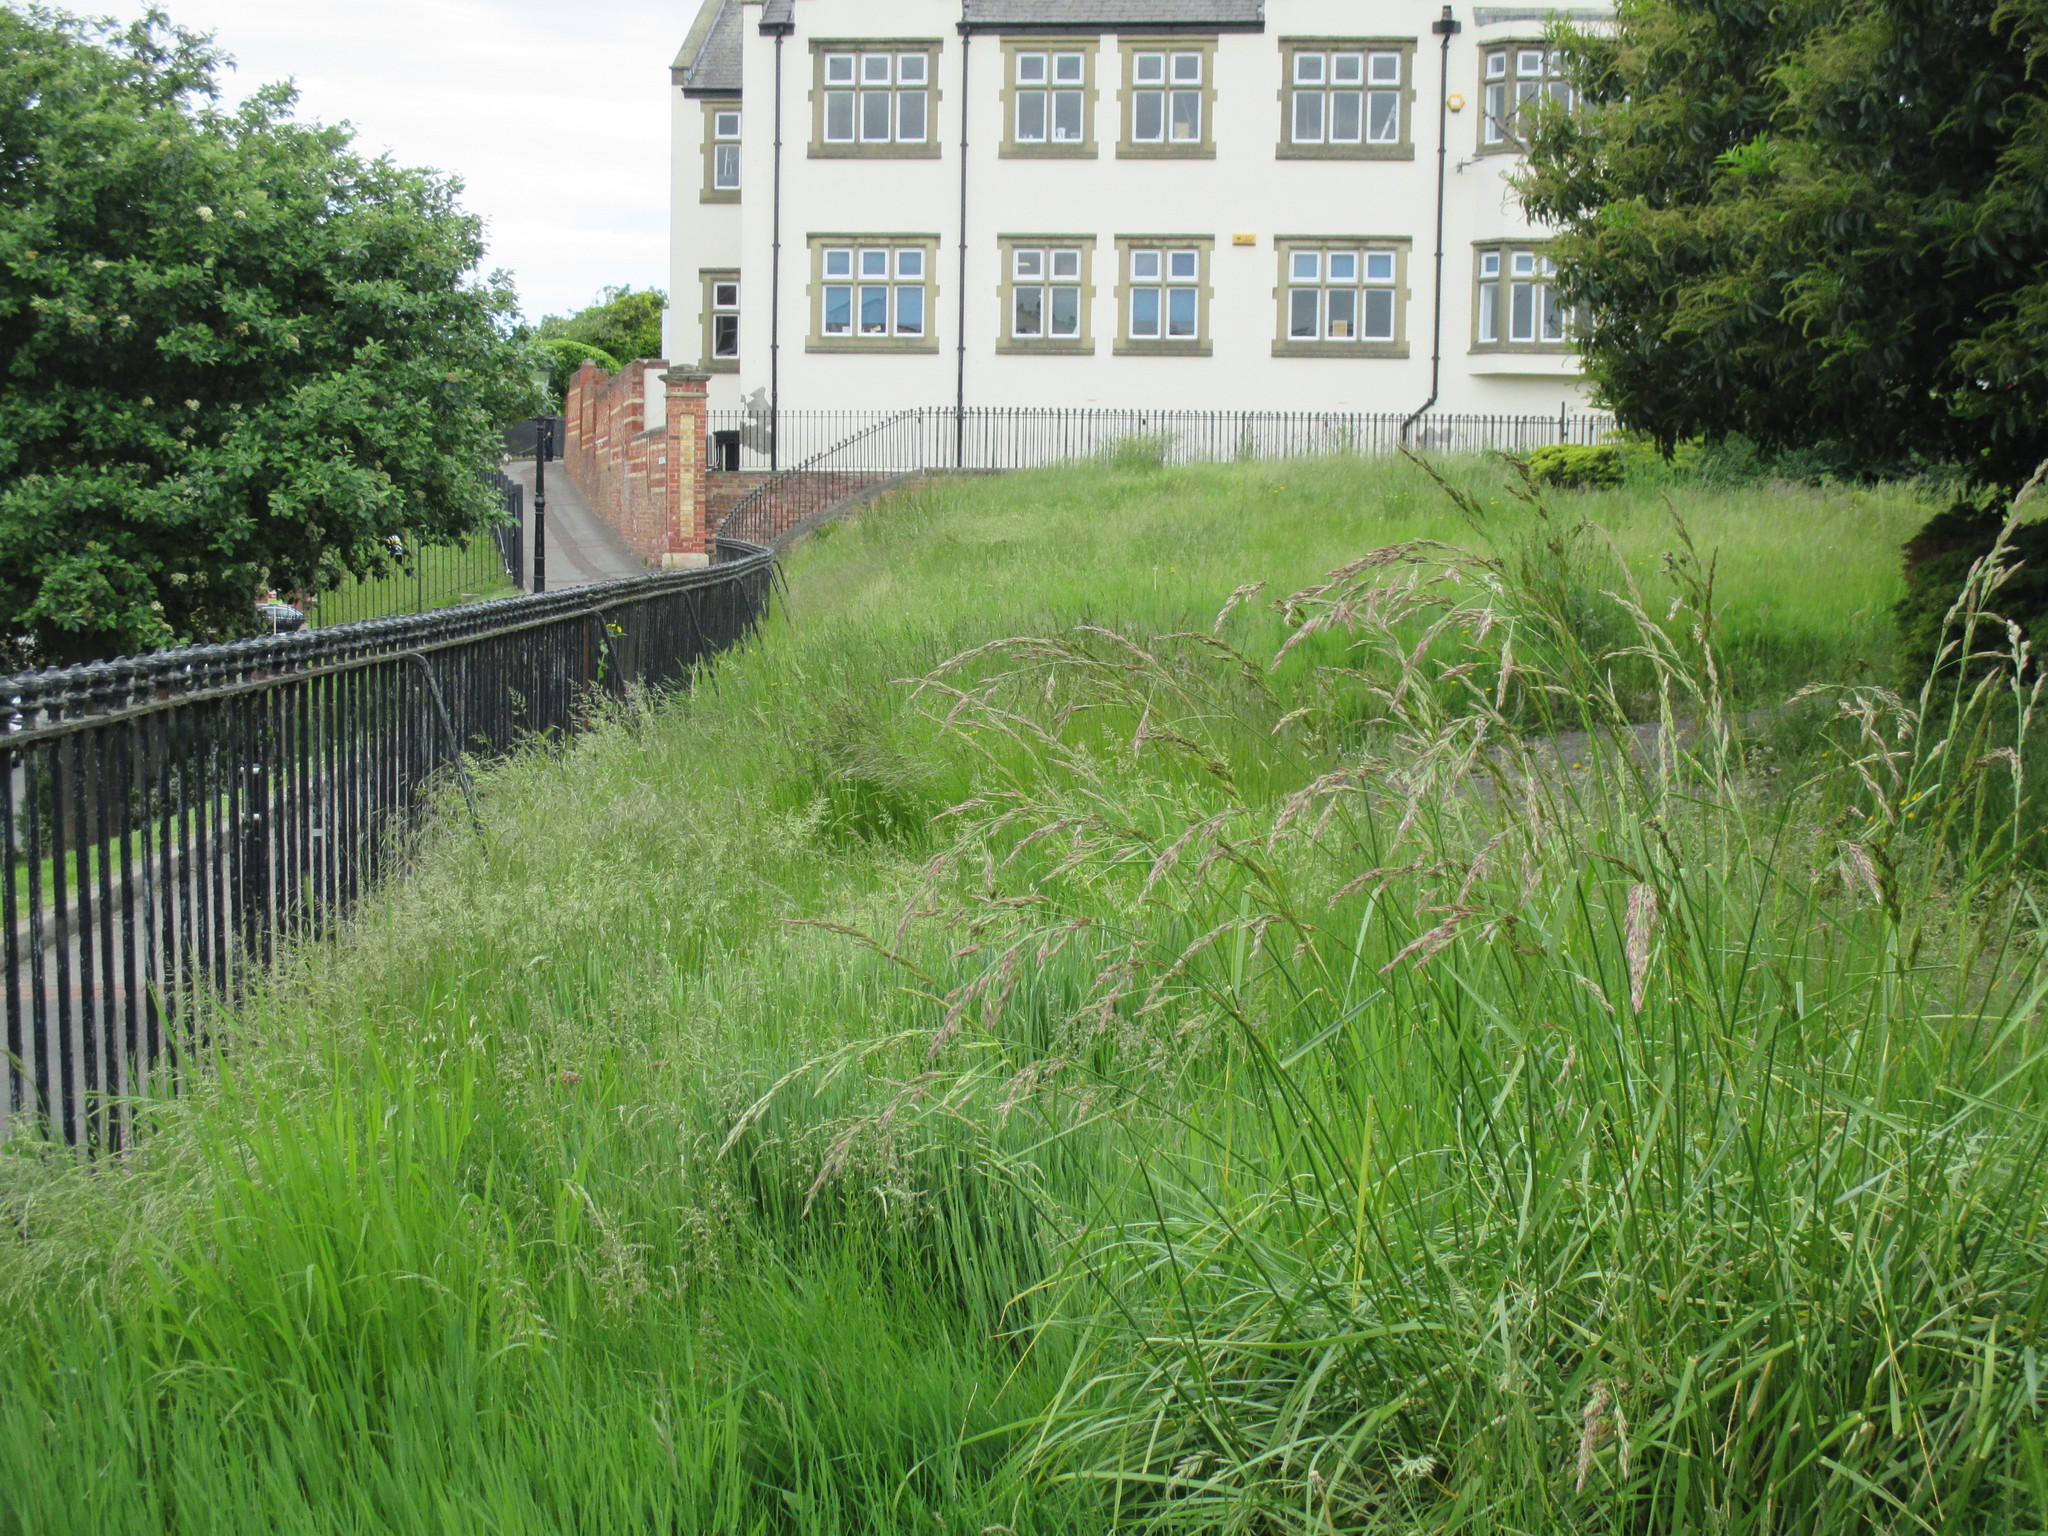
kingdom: Plantae
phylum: Tracheophyta
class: Liliopsida
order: Poales
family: Poaceae
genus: Lolium
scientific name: Lolium arundinaceum
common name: Reed fescue
